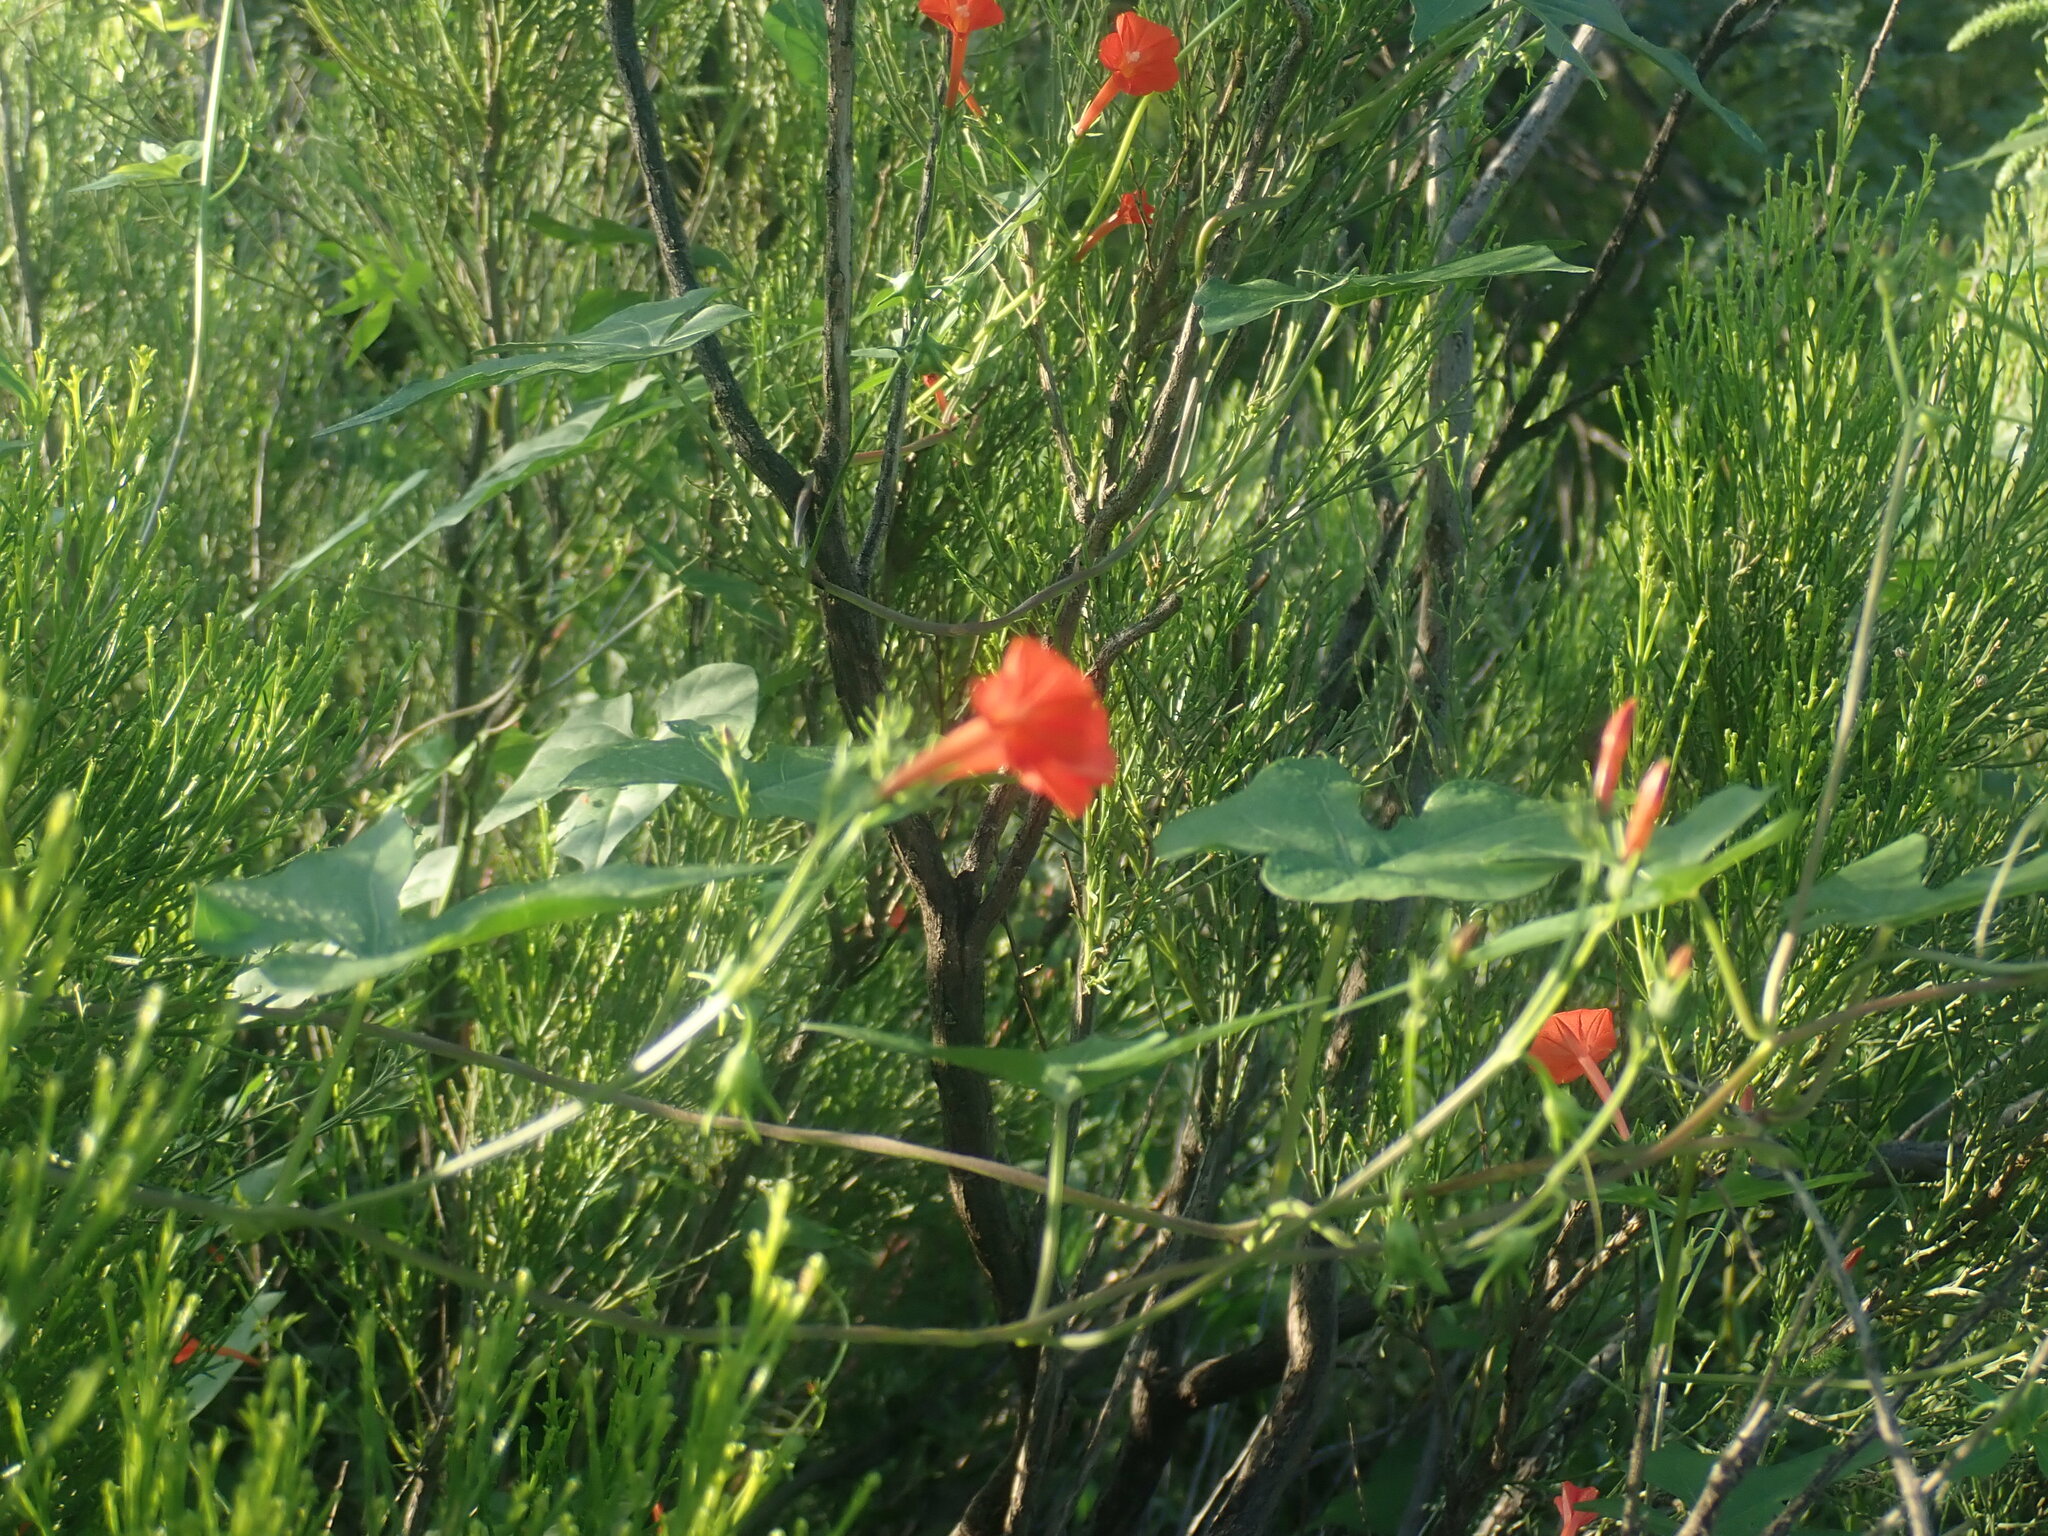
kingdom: Plantae
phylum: Tracheophyta
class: Magnoliopsida
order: Solanales
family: Convolvulaceae
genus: Ipomoea
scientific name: Ipomoea cristulata
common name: Trans-pecos morning-glory
